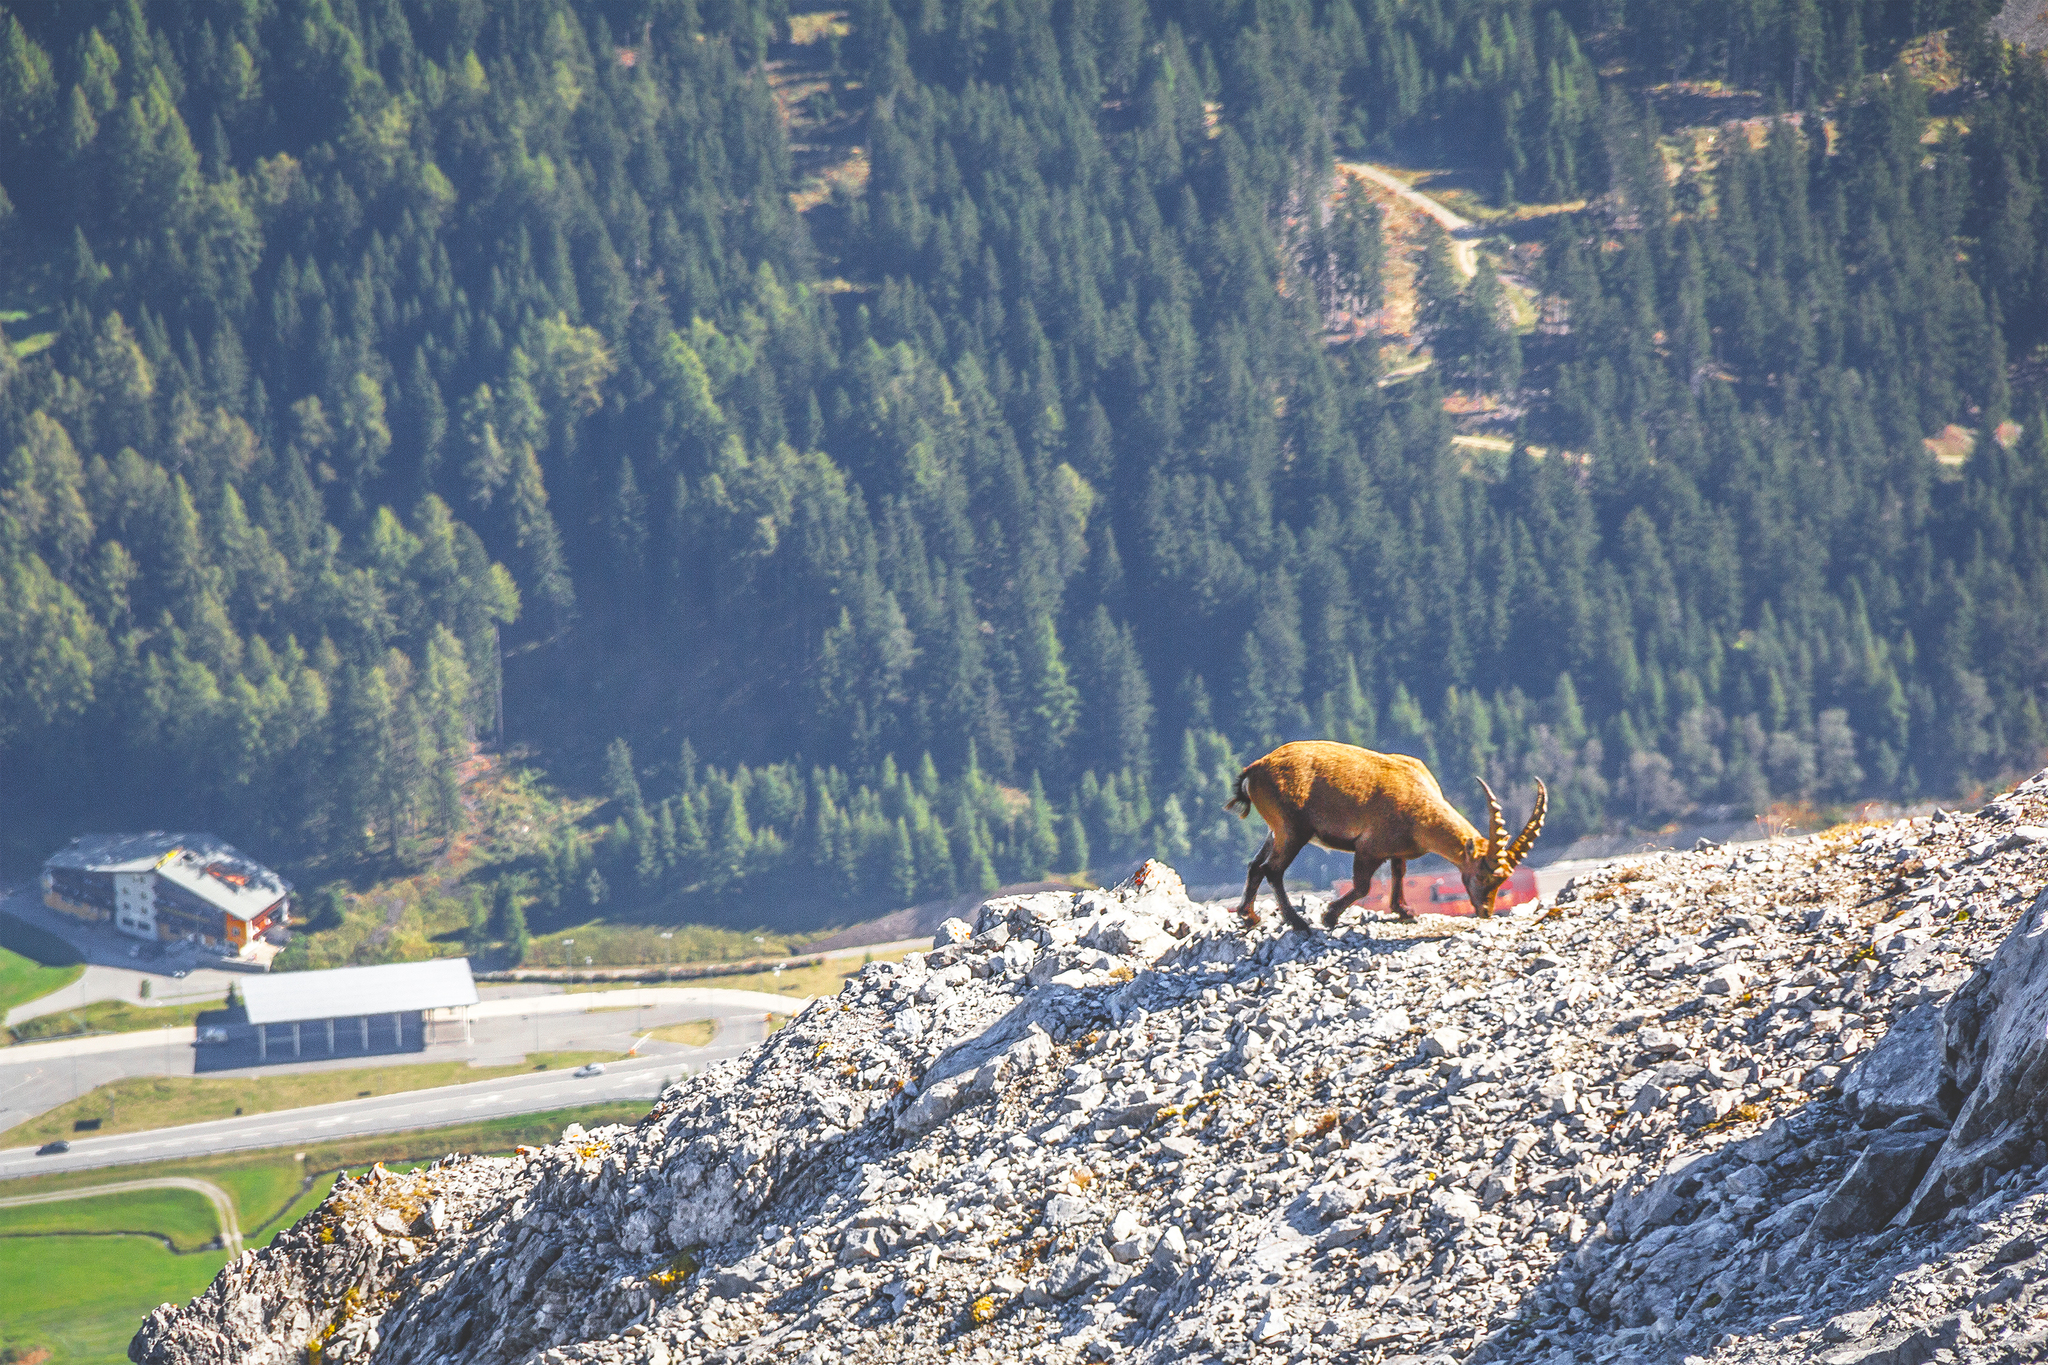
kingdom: Animalia
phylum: Chordata
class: Mammalia
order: Artiodactyla
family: Bovidae
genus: Capra
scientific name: Capra ibex
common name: Alpine ibex
